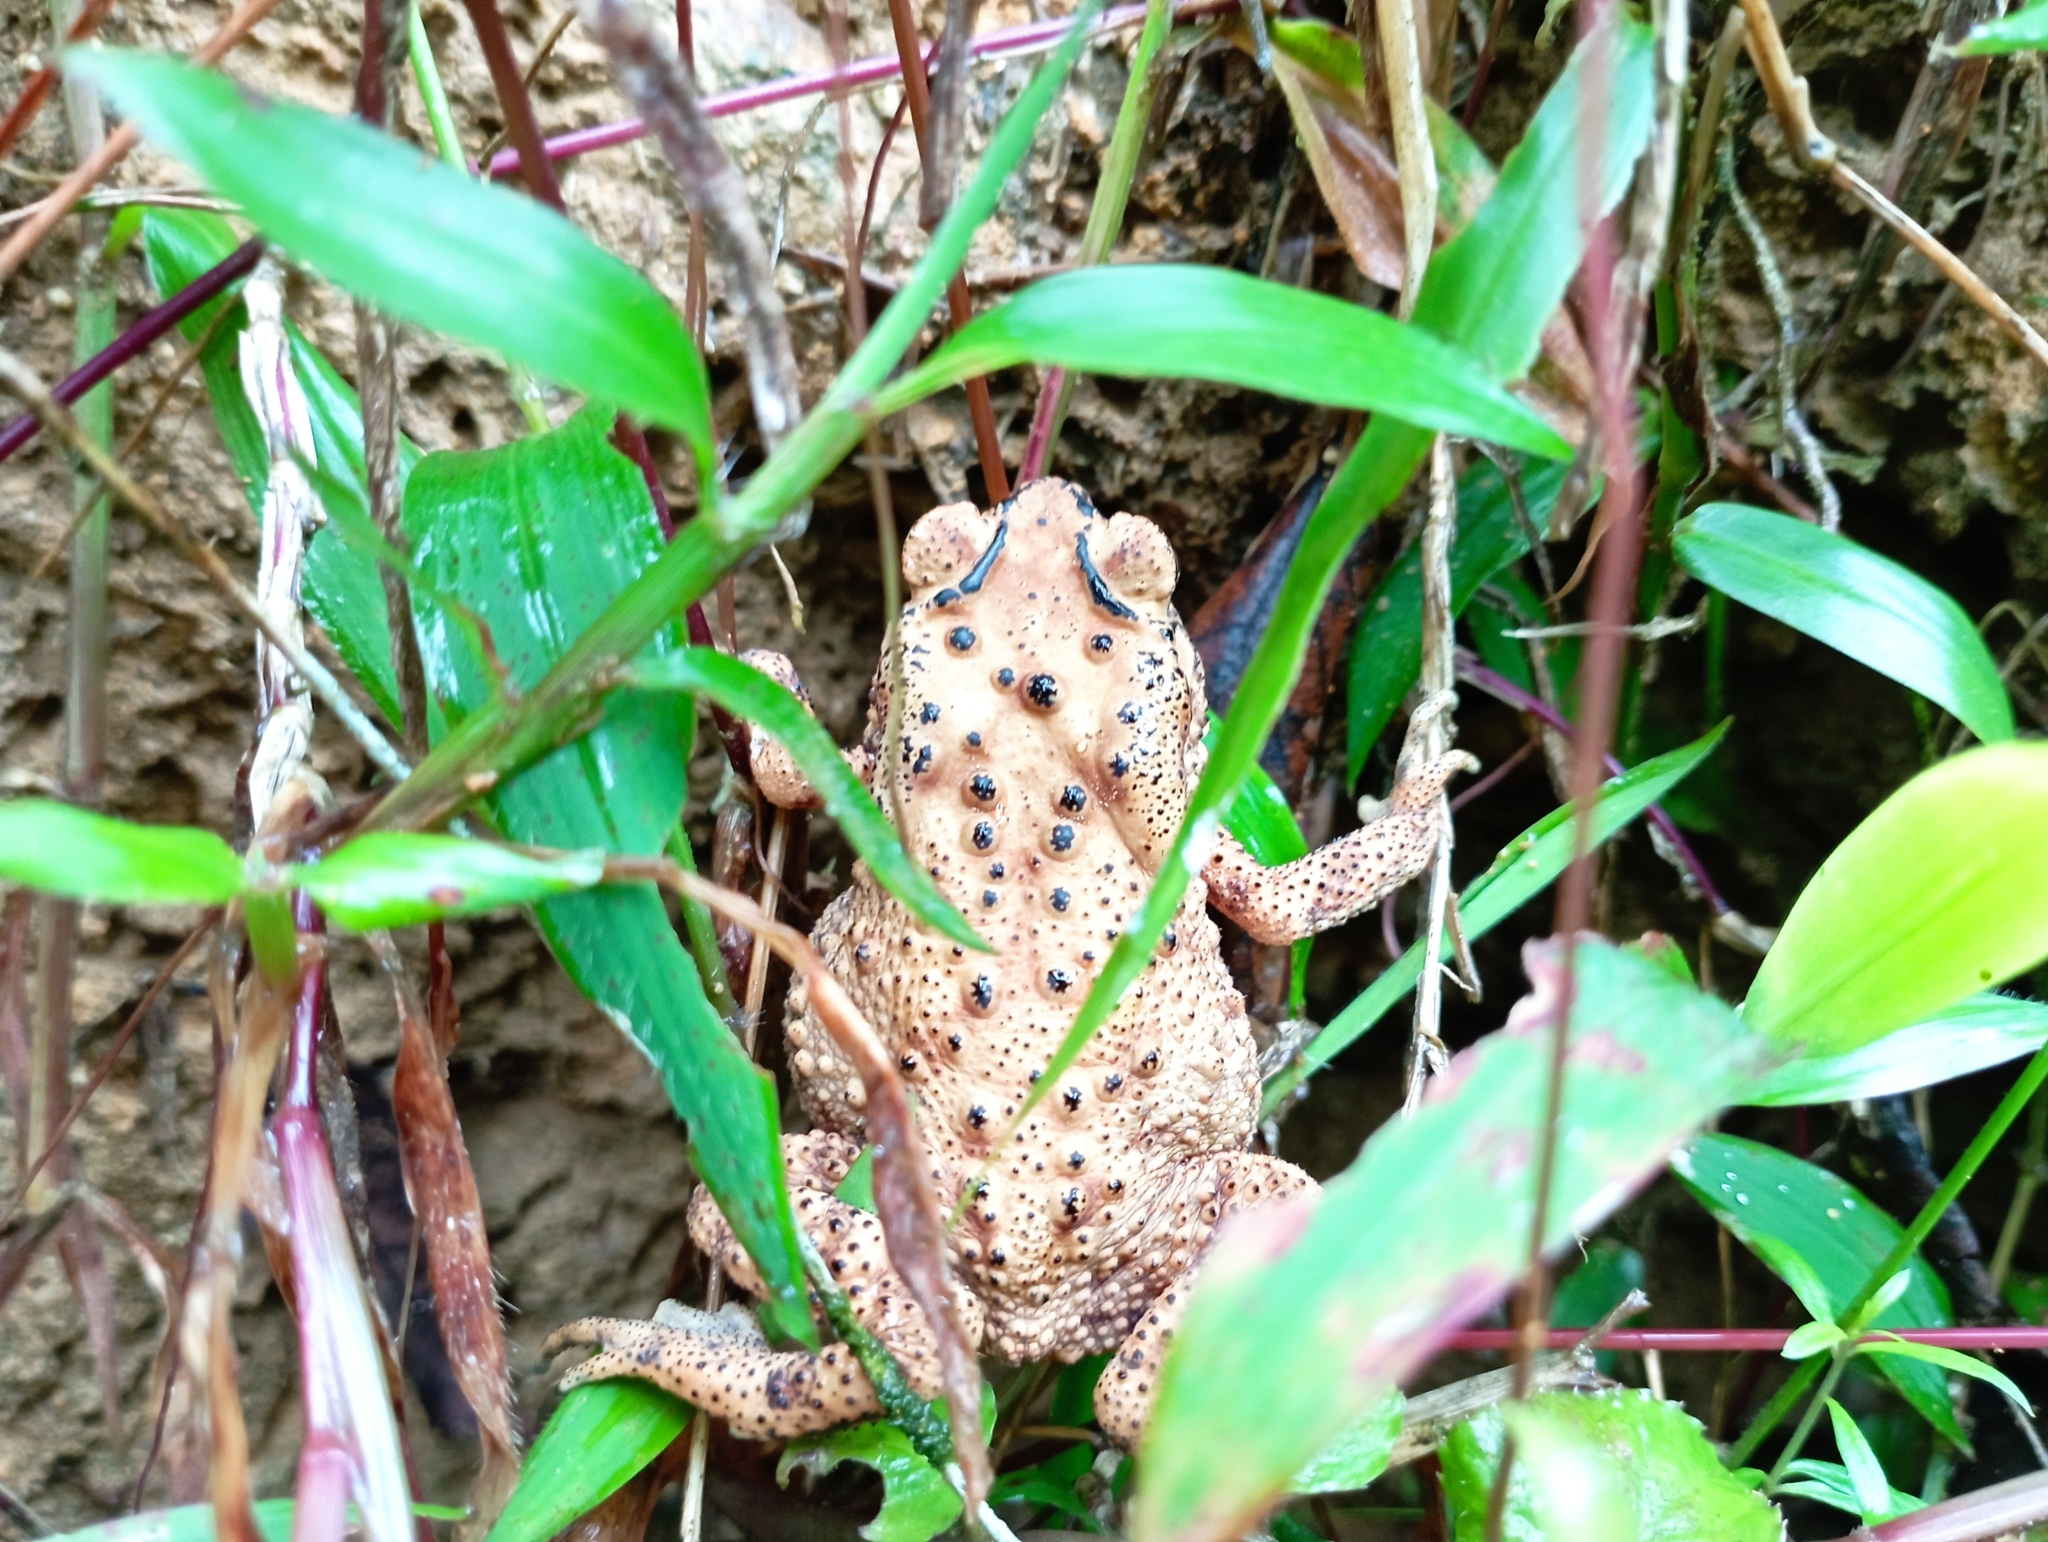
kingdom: Animalia
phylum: Chordata
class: Amphibia
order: Anura
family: Bufonidae
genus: Duttaphrynus
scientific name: Duttaphrynus melanostictus
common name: Common sunda toad
